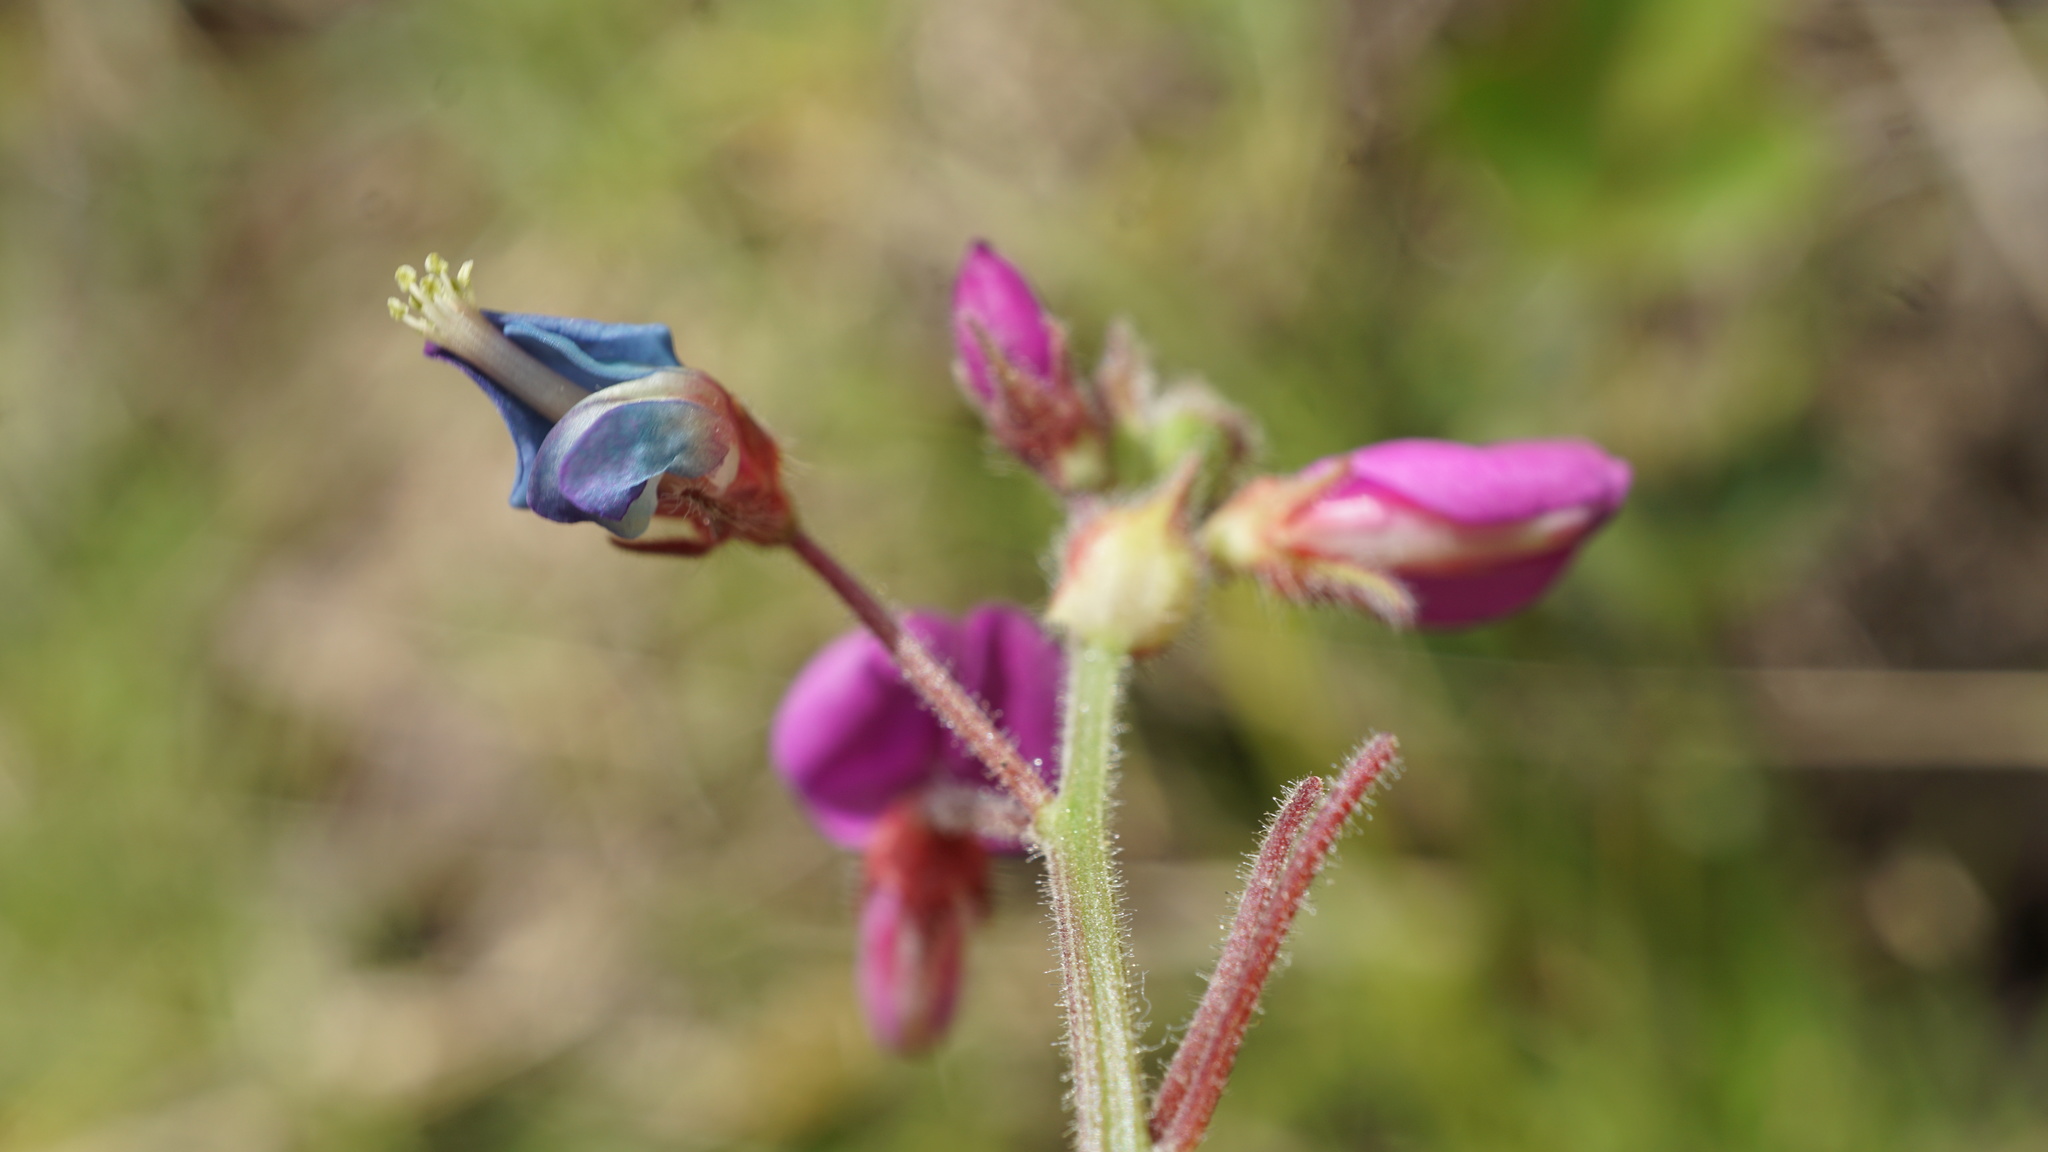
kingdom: Plantae
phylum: Tracheophyta
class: Magnoliopsida
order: Fabales
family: Fabaceae
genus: Desmodium
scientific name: Desmodium molliculum
